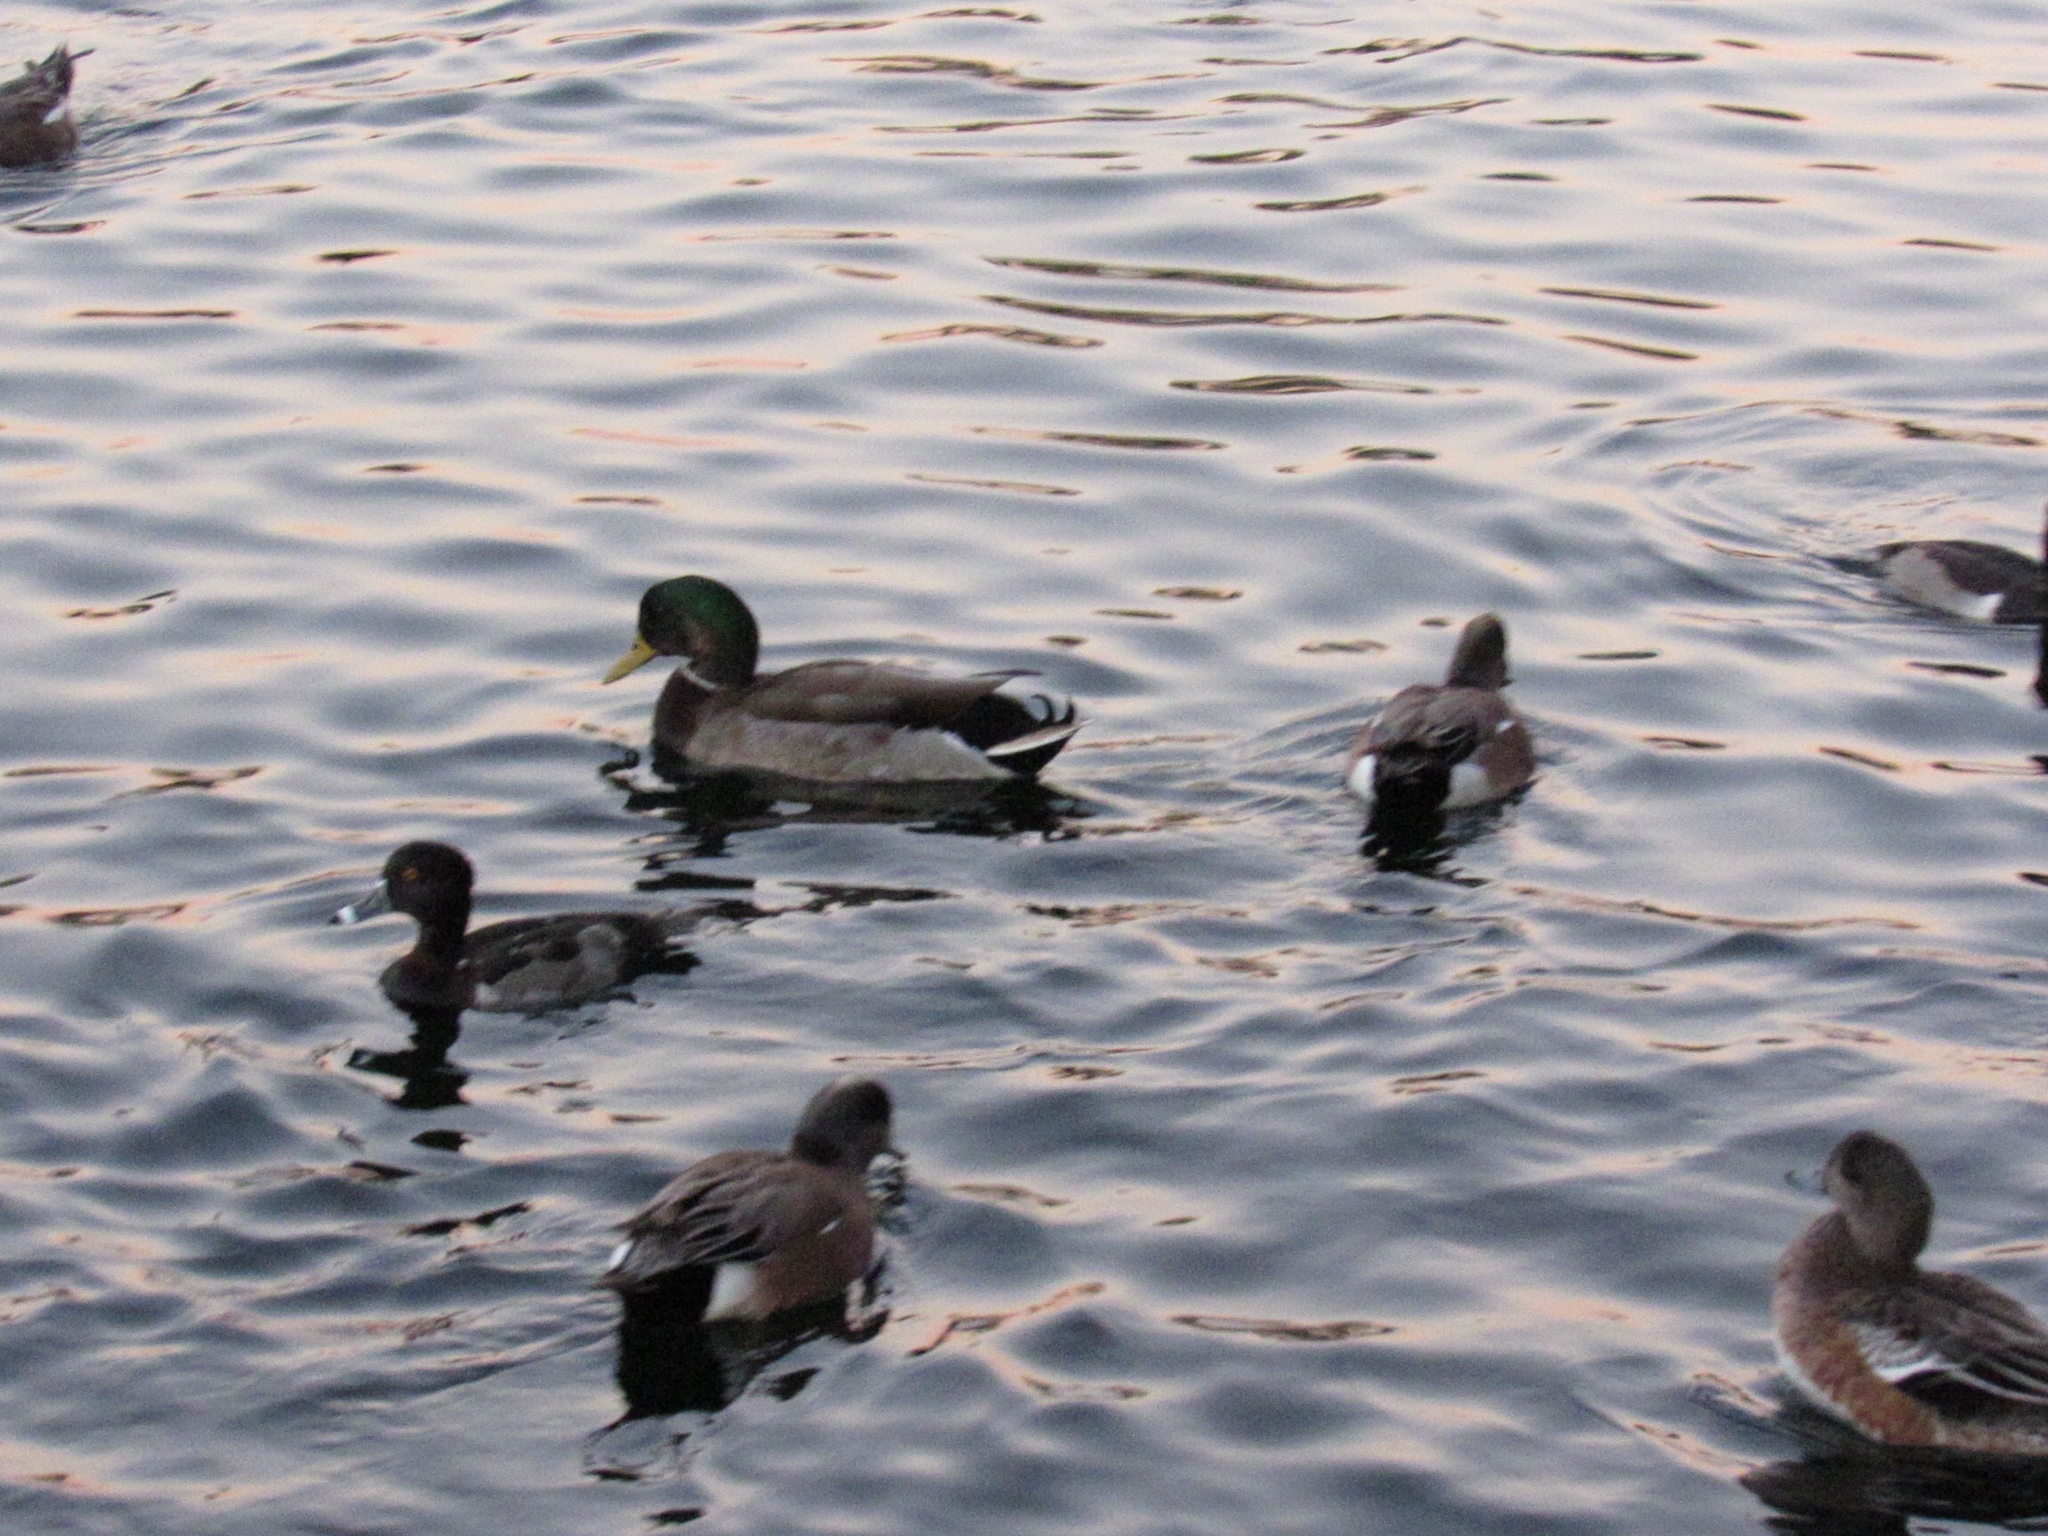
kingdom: Animalia
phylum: Chordata
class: Aves
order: Anseriformes
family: Anatidae
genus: Anas
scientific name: Anas platyrhynchos
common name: Mallard
